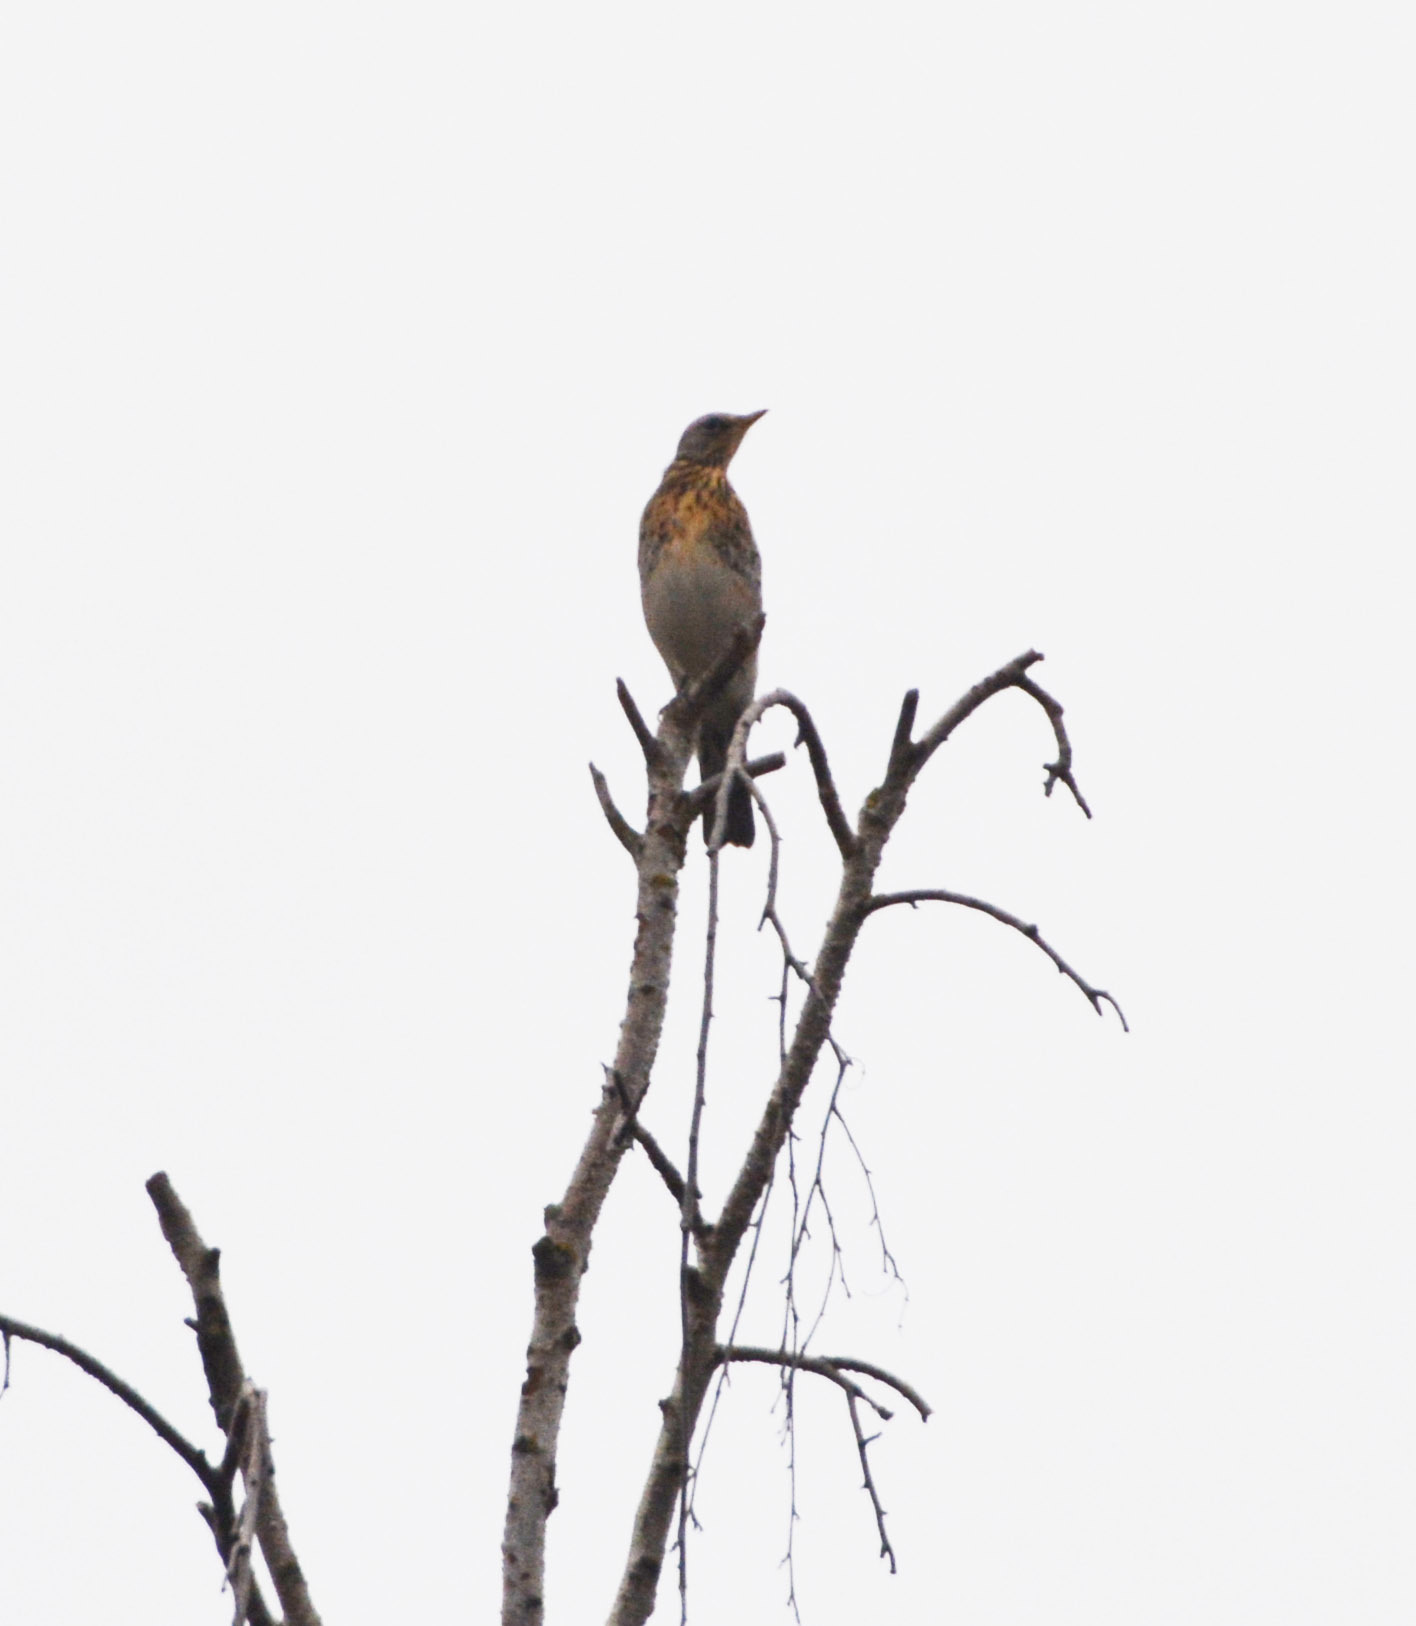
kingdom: Animalia
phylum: Chordata
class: Aves
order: Passeriformes
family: Turdidae
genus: Turdus
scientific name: Turdus pilaris
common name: Fieldfare
